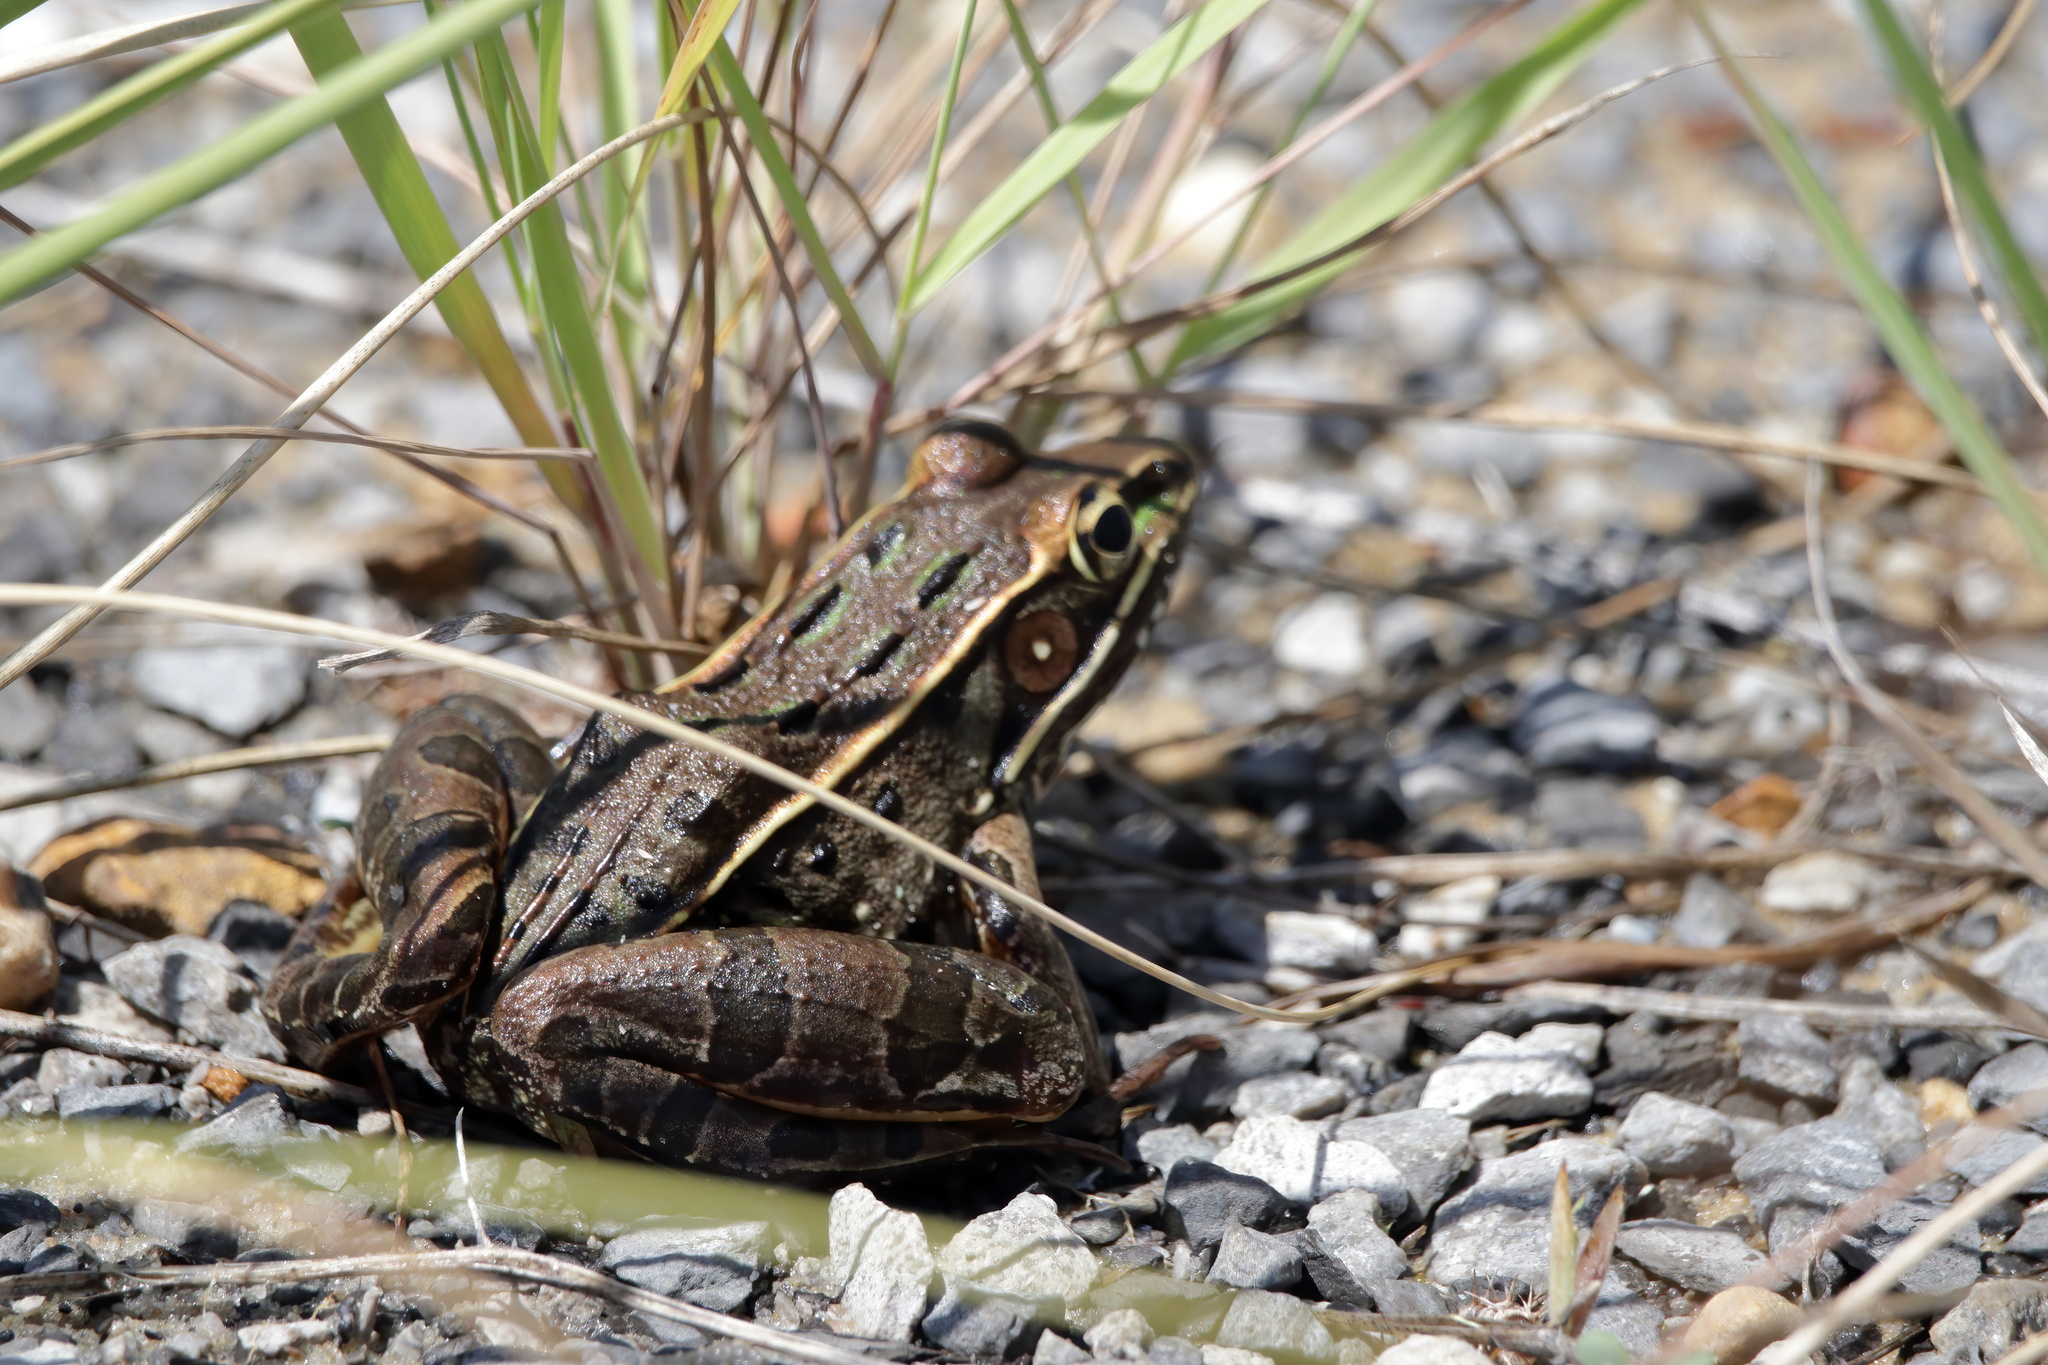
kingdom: Animalia
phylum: Chordata
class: Amphibia
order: Anura
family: Ranidae
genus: Lithobates
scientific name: Lithobates sphenocephalus
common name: Southern leopard frog
